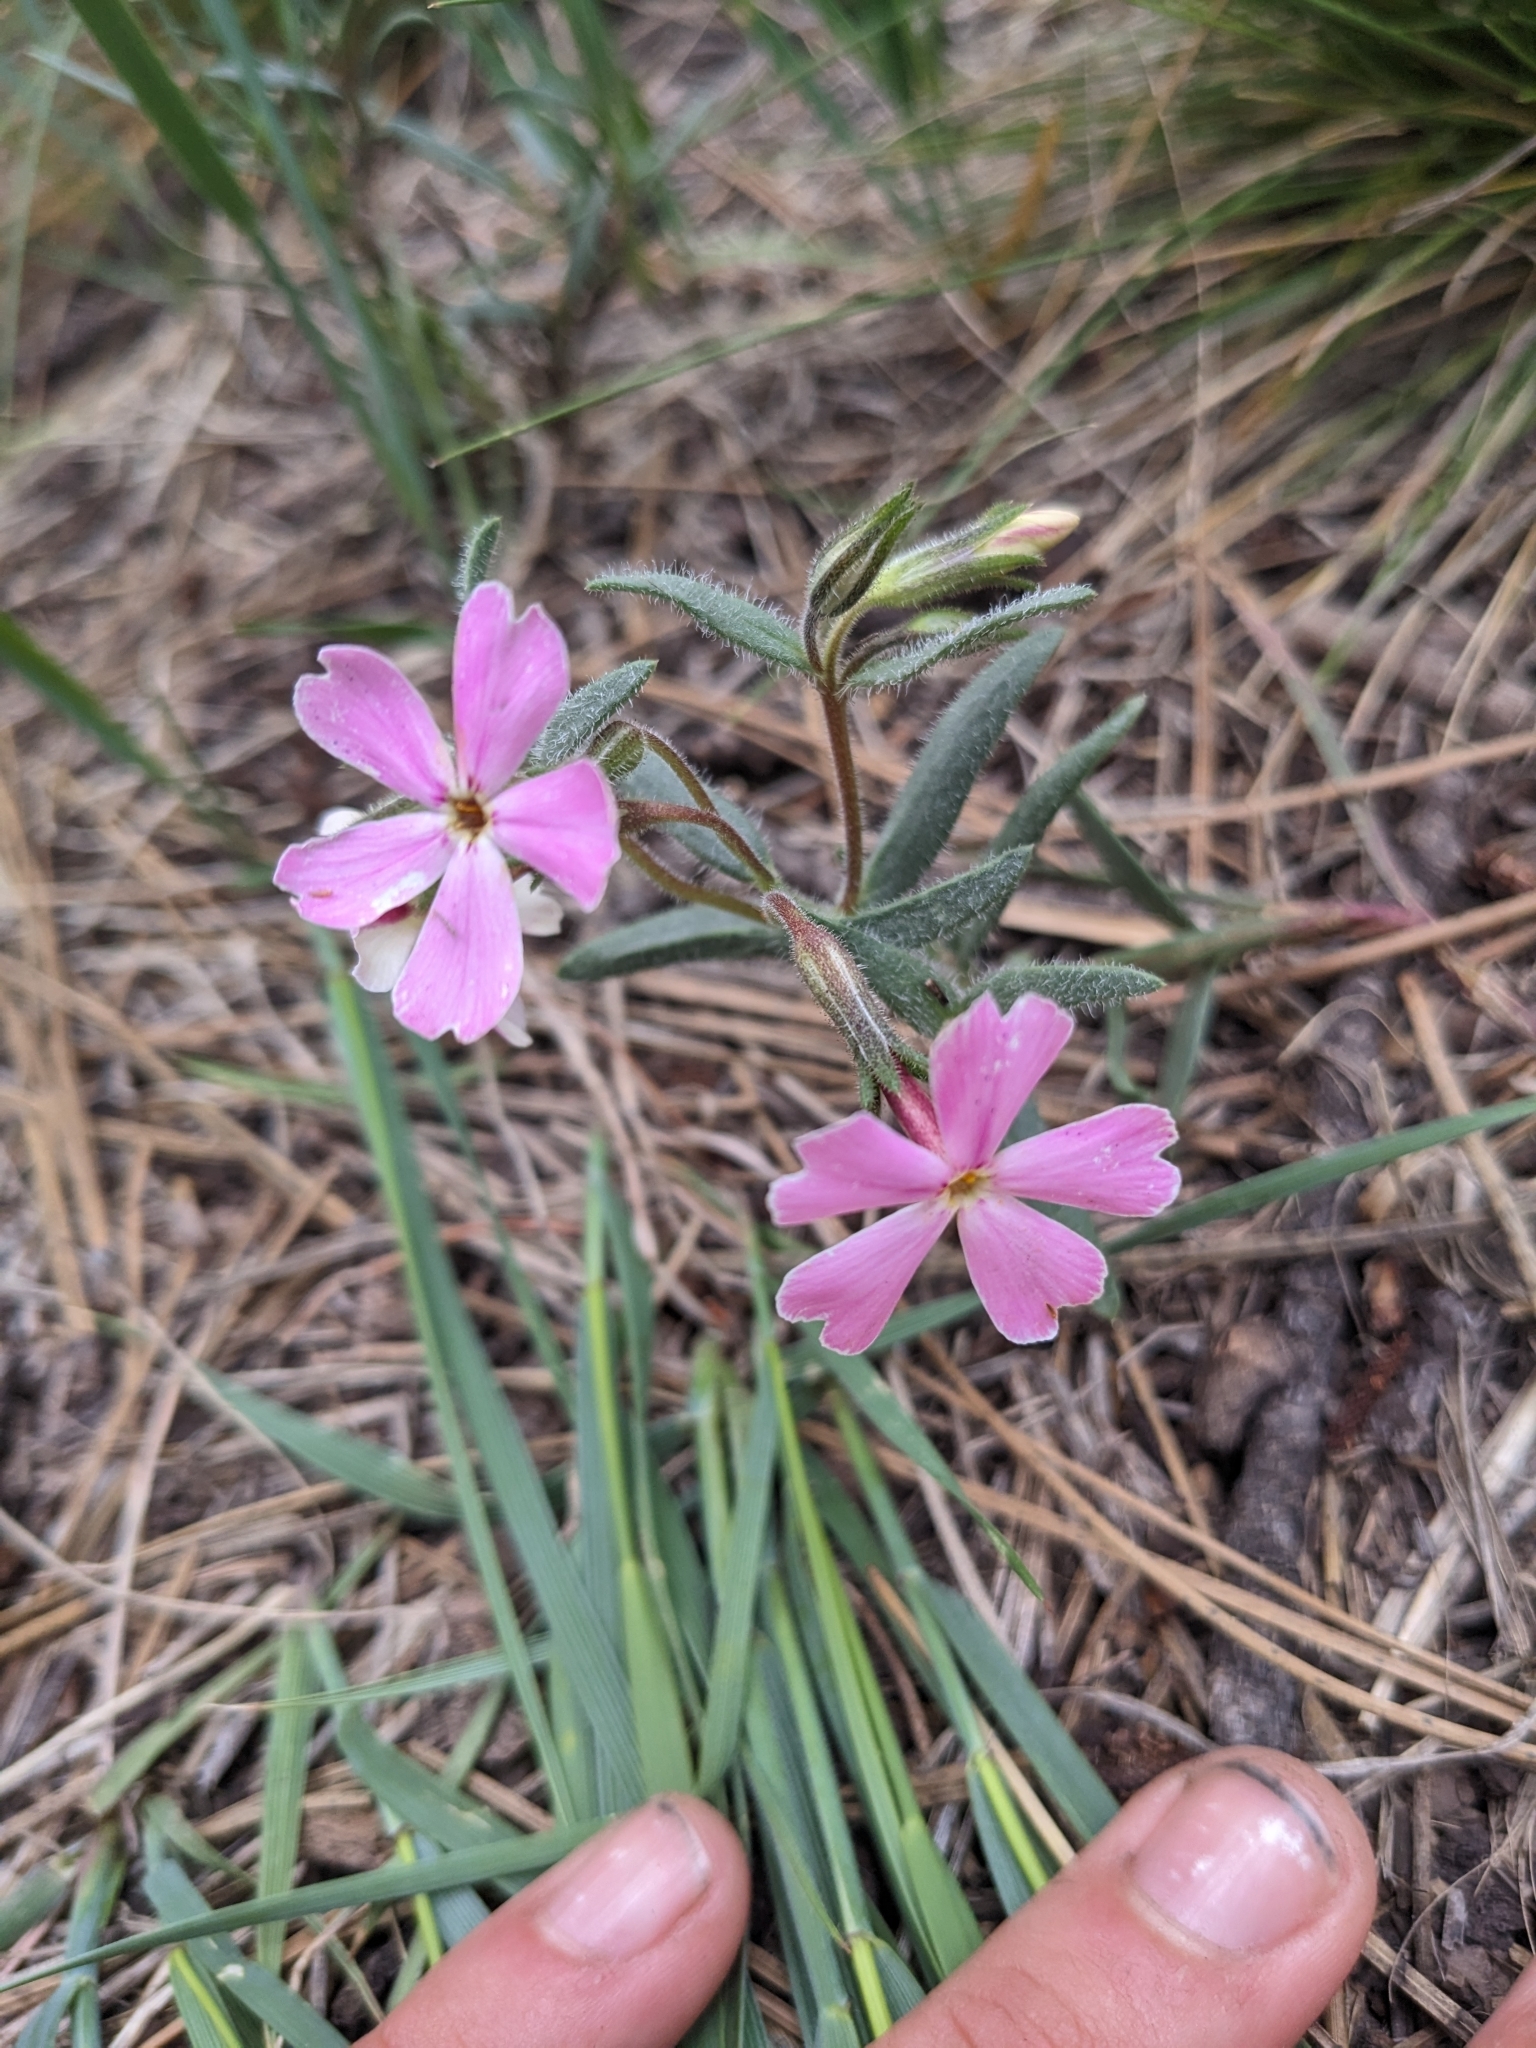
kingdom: Plantae
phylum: Tracheophyta
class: Magnoliopsida
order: Ericales
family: Polemoniaceae
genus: Phlox
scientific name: Phlox amabilis
